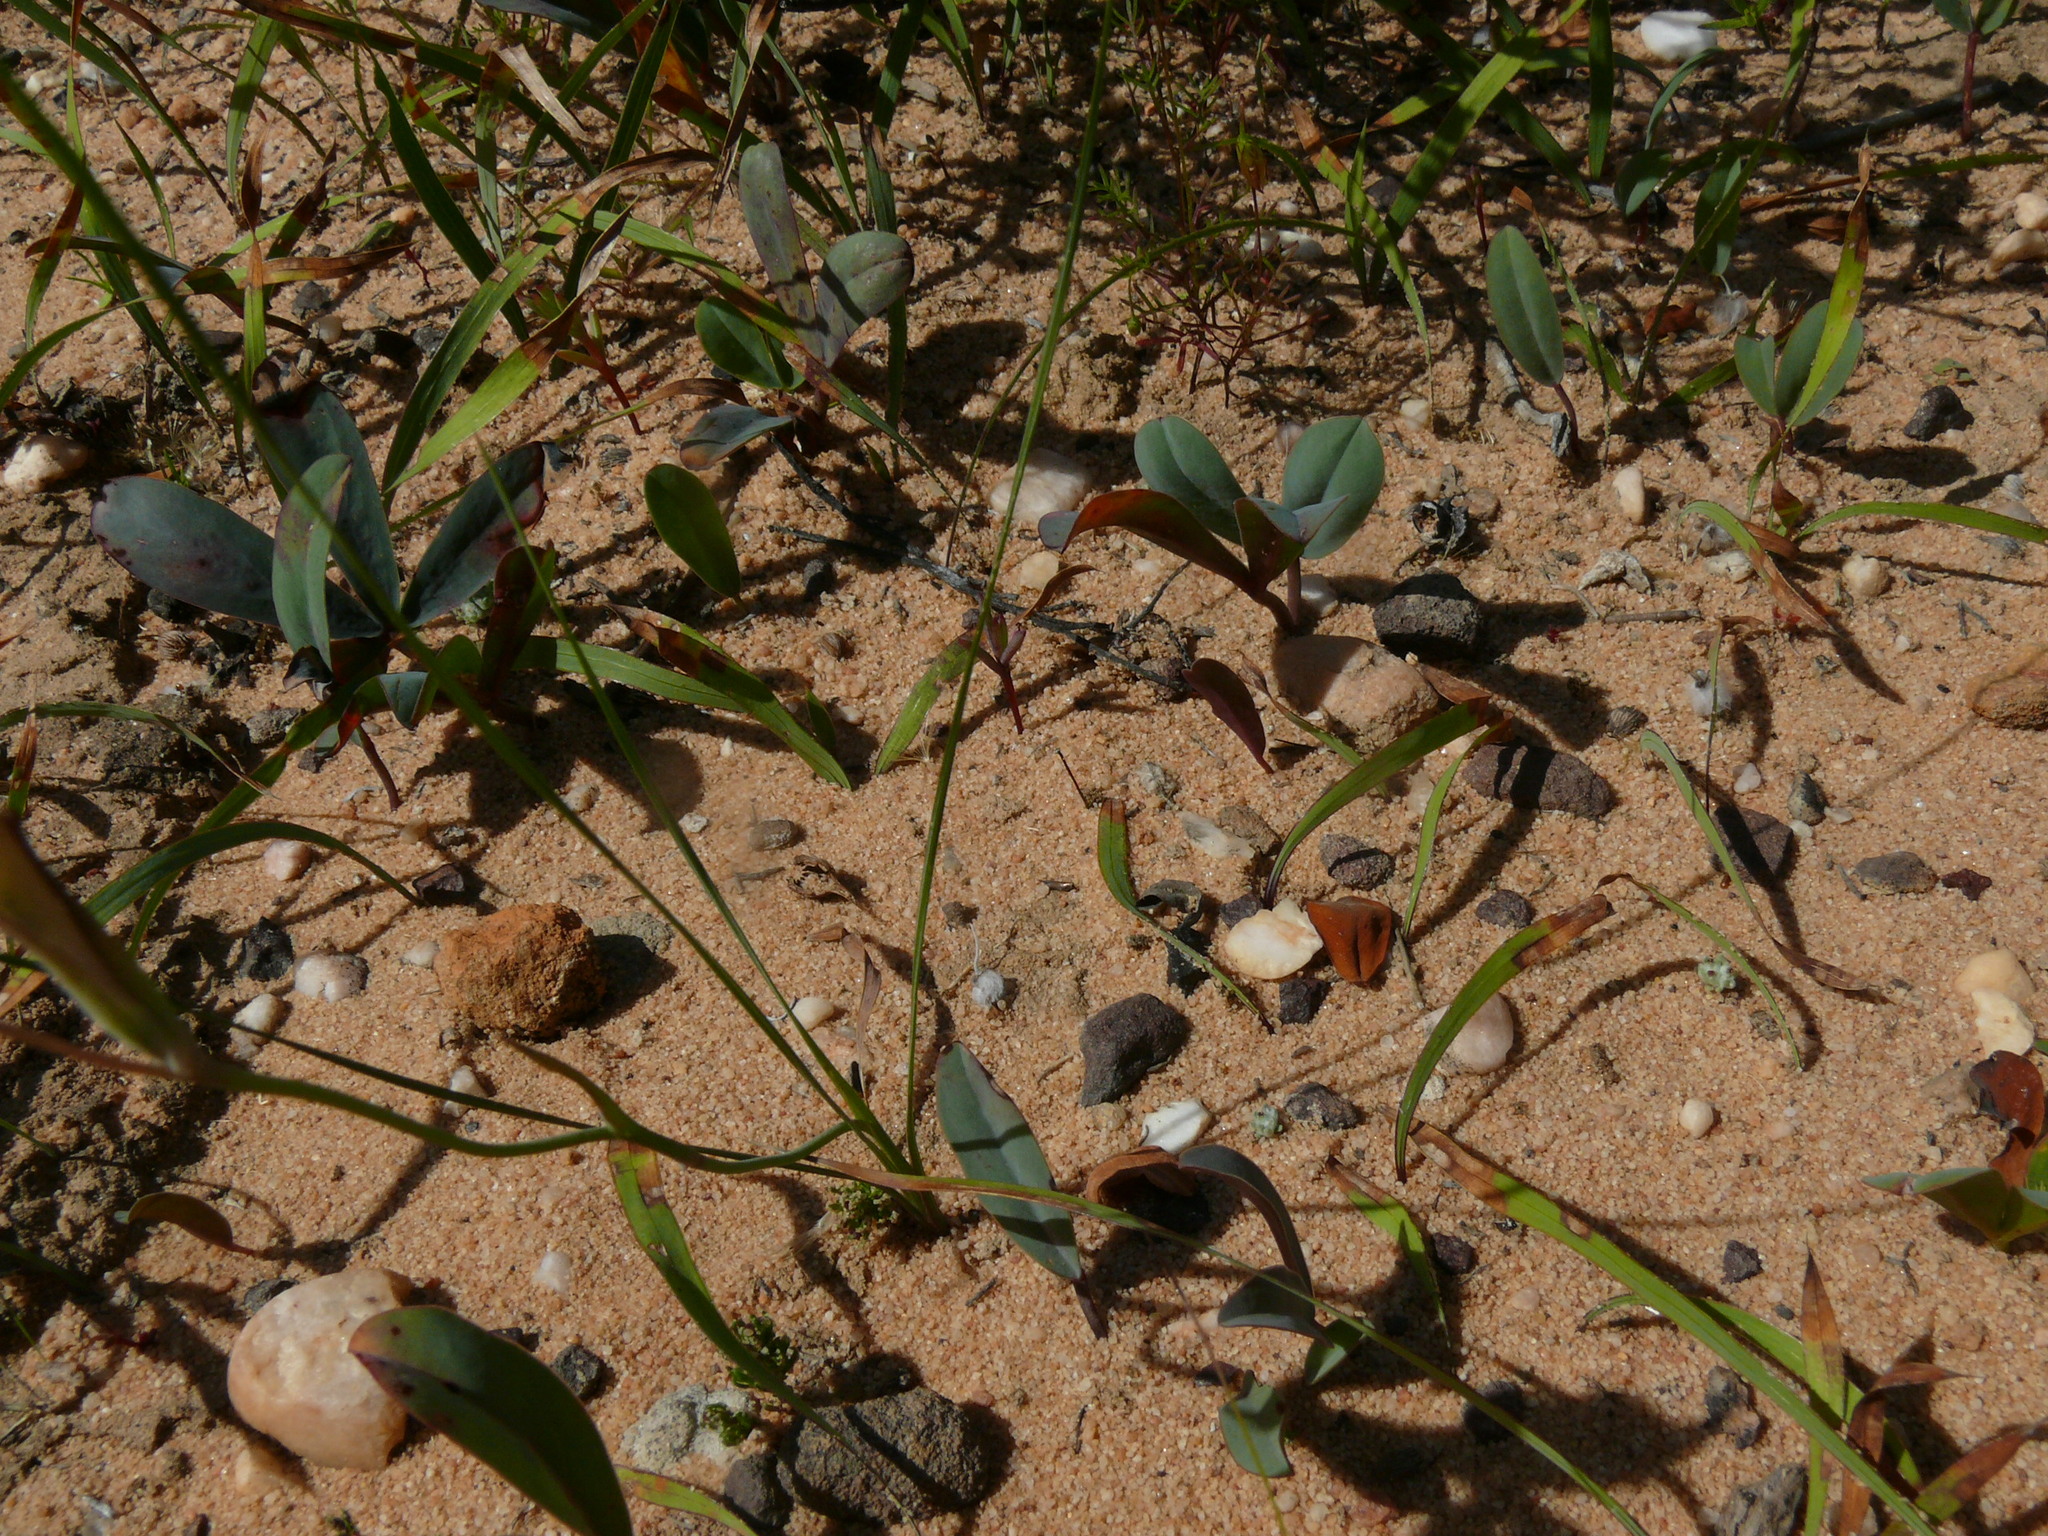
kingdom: Plantae
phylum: Tracheophyta
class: Liliopsida
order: Asparagales
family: Iridaceae
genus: Gladiolus
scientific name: Gladiolus venustus
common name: Purple kalkoentjie
